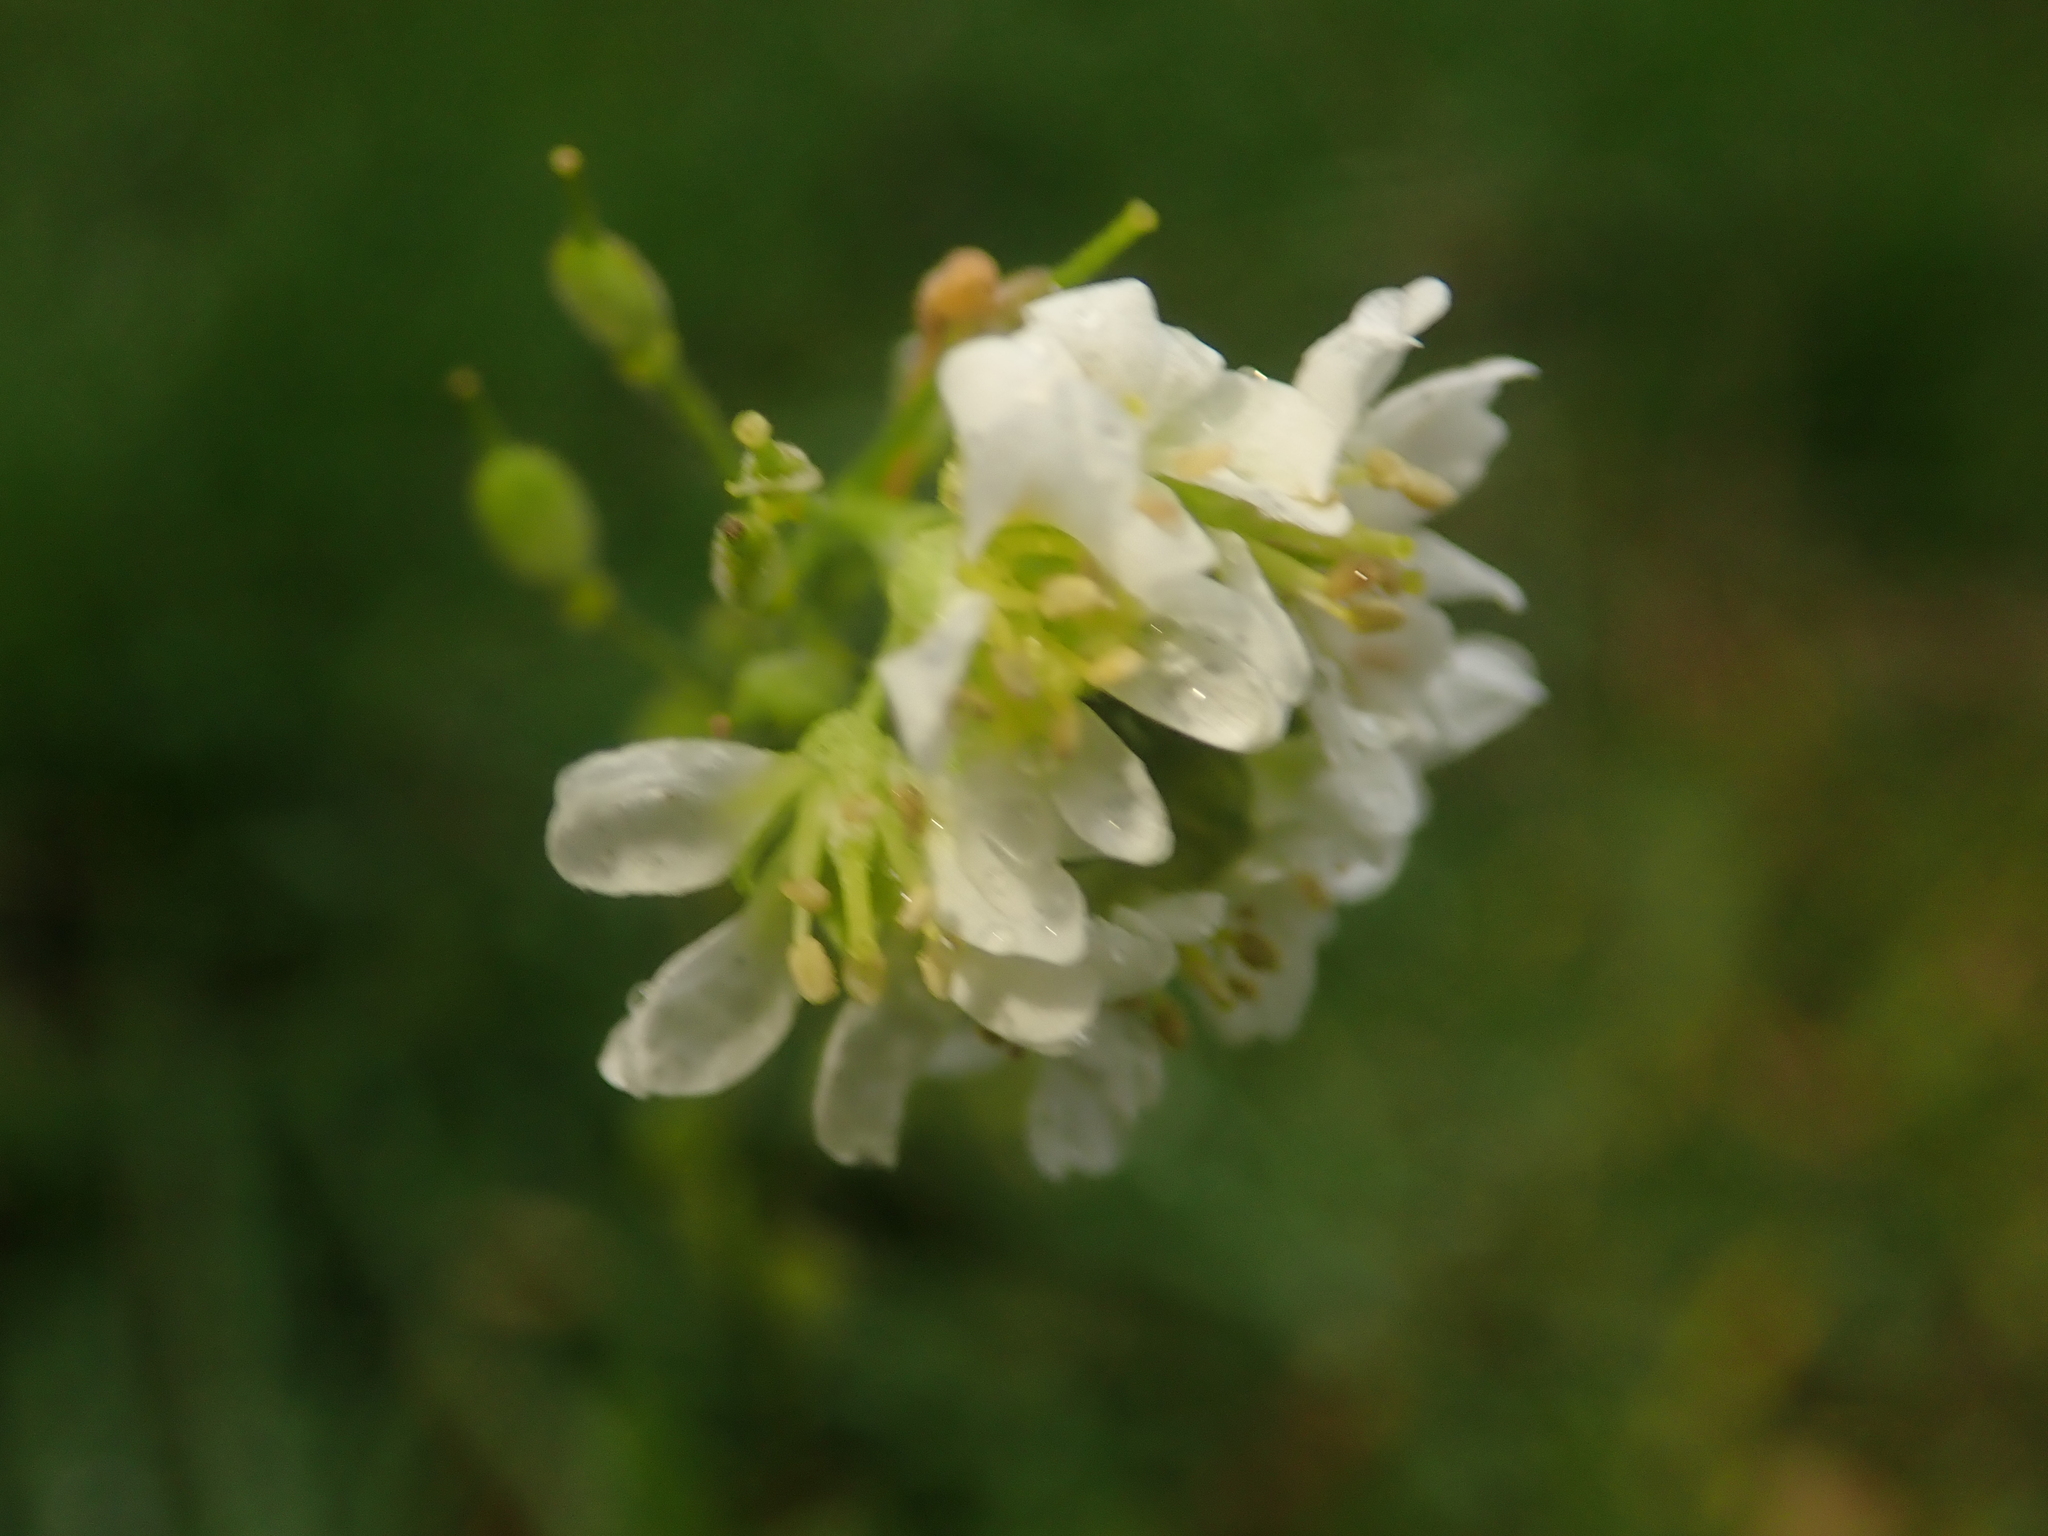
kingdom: Plantae
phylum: Tracheophyta
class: Magnoliopsida
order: Brassicales
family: Brassicaceae
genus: Berteroa
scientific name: Berteroa incana
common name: Hoary alison
